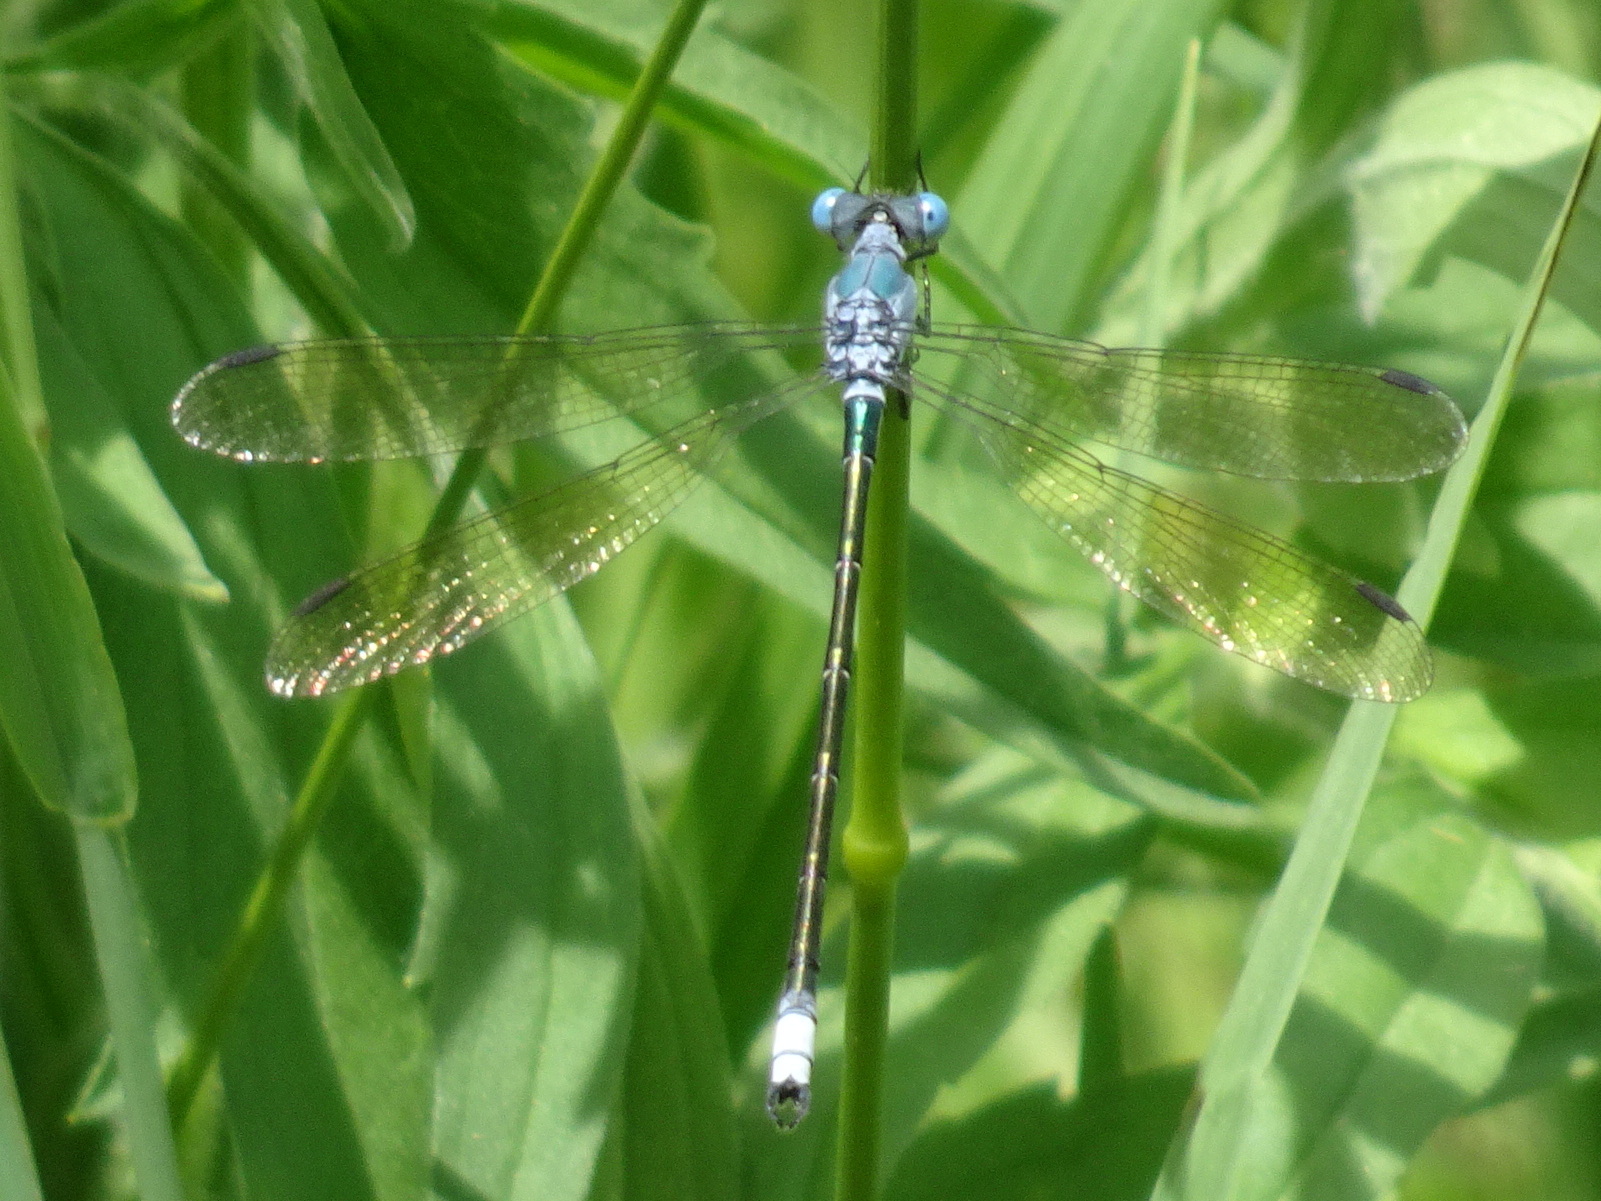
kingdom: Animalia
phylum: Arthropoda
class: Insecta
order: Odonata
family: Lestidae
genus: Lestes
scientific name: Lestes eurinus
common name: Amber-winged spreadwing
